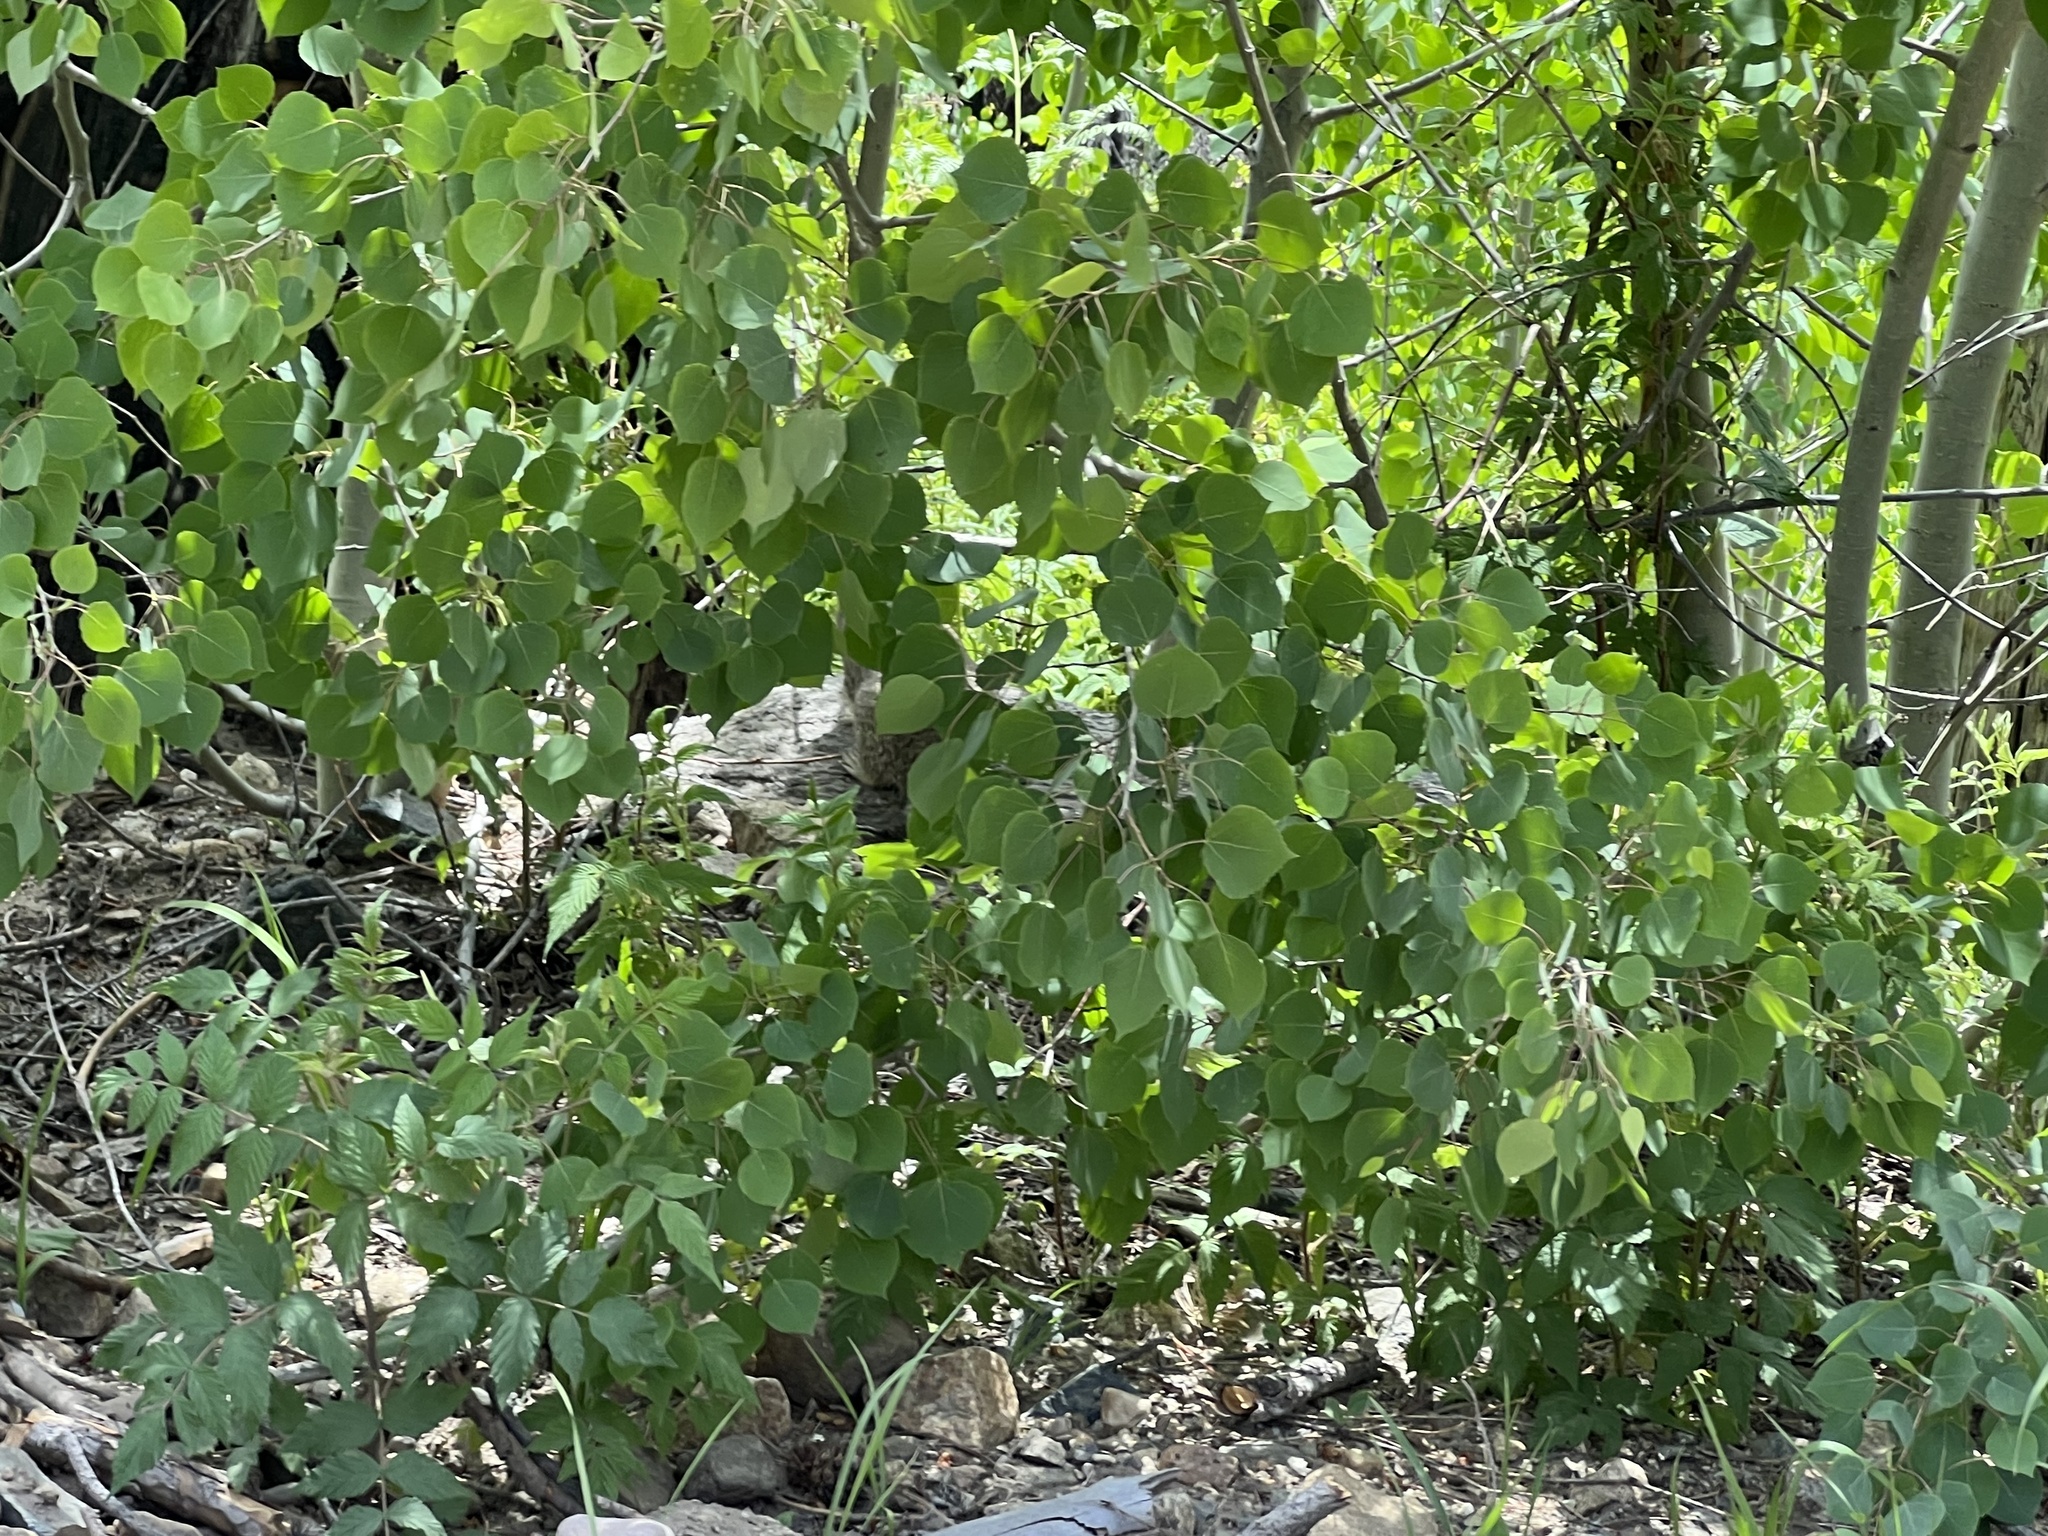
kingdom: Plantae
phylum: Tracheophyta
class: Magnoliopsida
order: Malpighiales
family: Salicaceae
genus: Populus
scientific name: Populus tremuloides
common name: Quaking aspen
